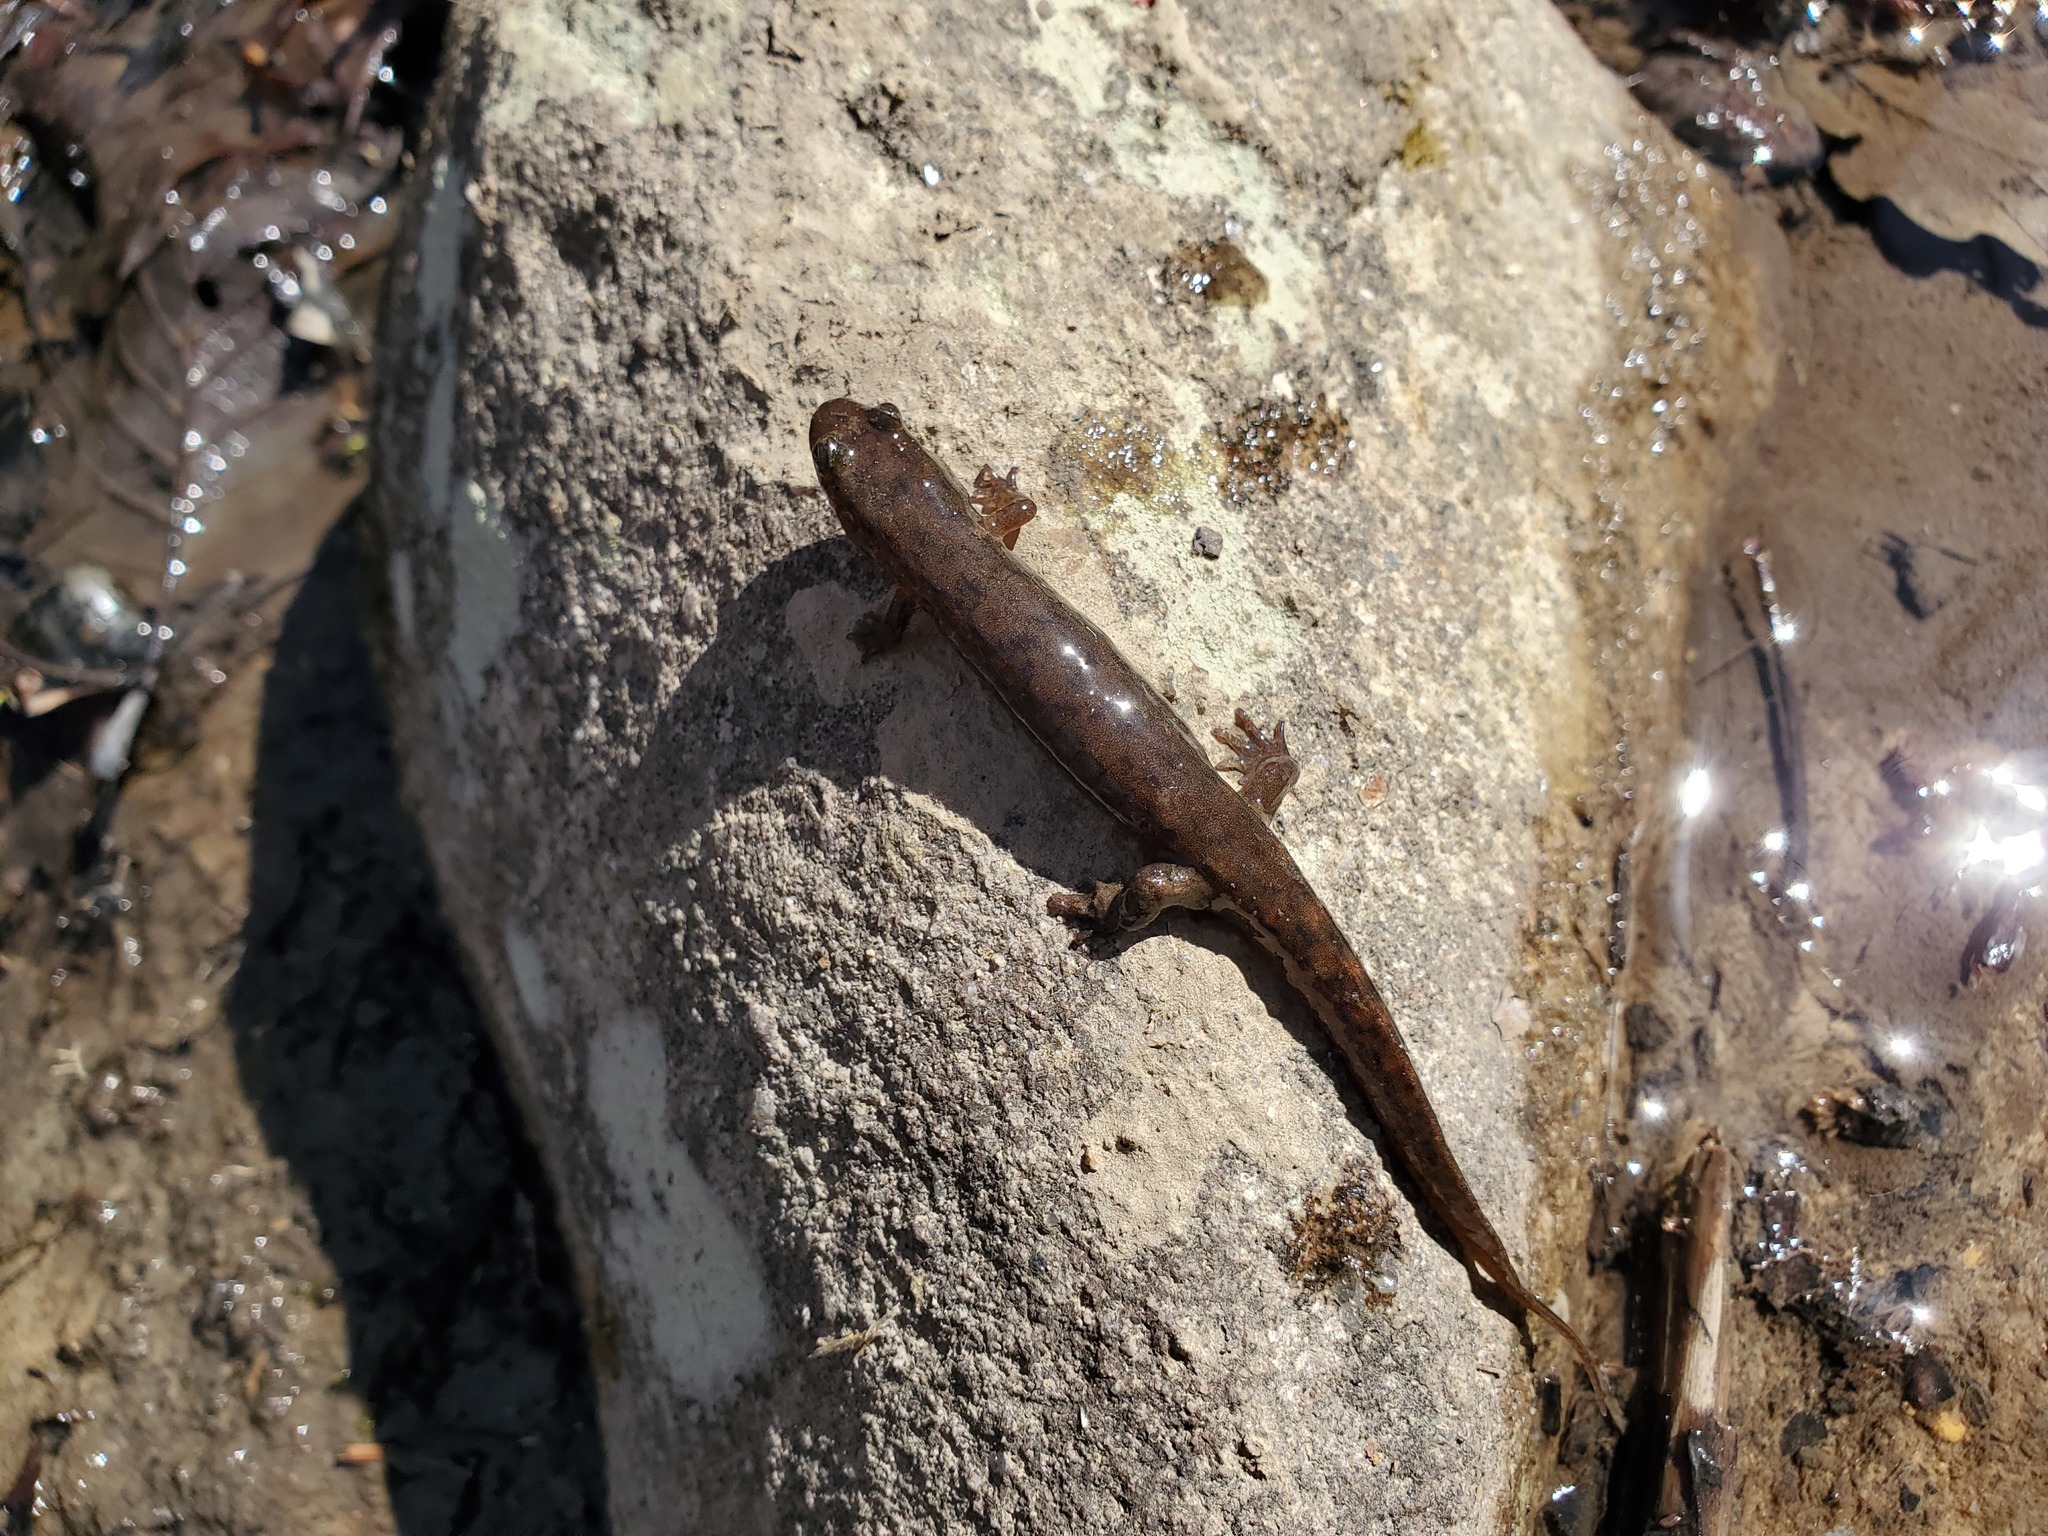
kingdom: Animalia
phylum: Chordata
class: Amphibia
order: Caudata
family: Plethodontidae
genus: Desmognathus
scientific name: Desmognathus monticola
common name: Seal salamander
